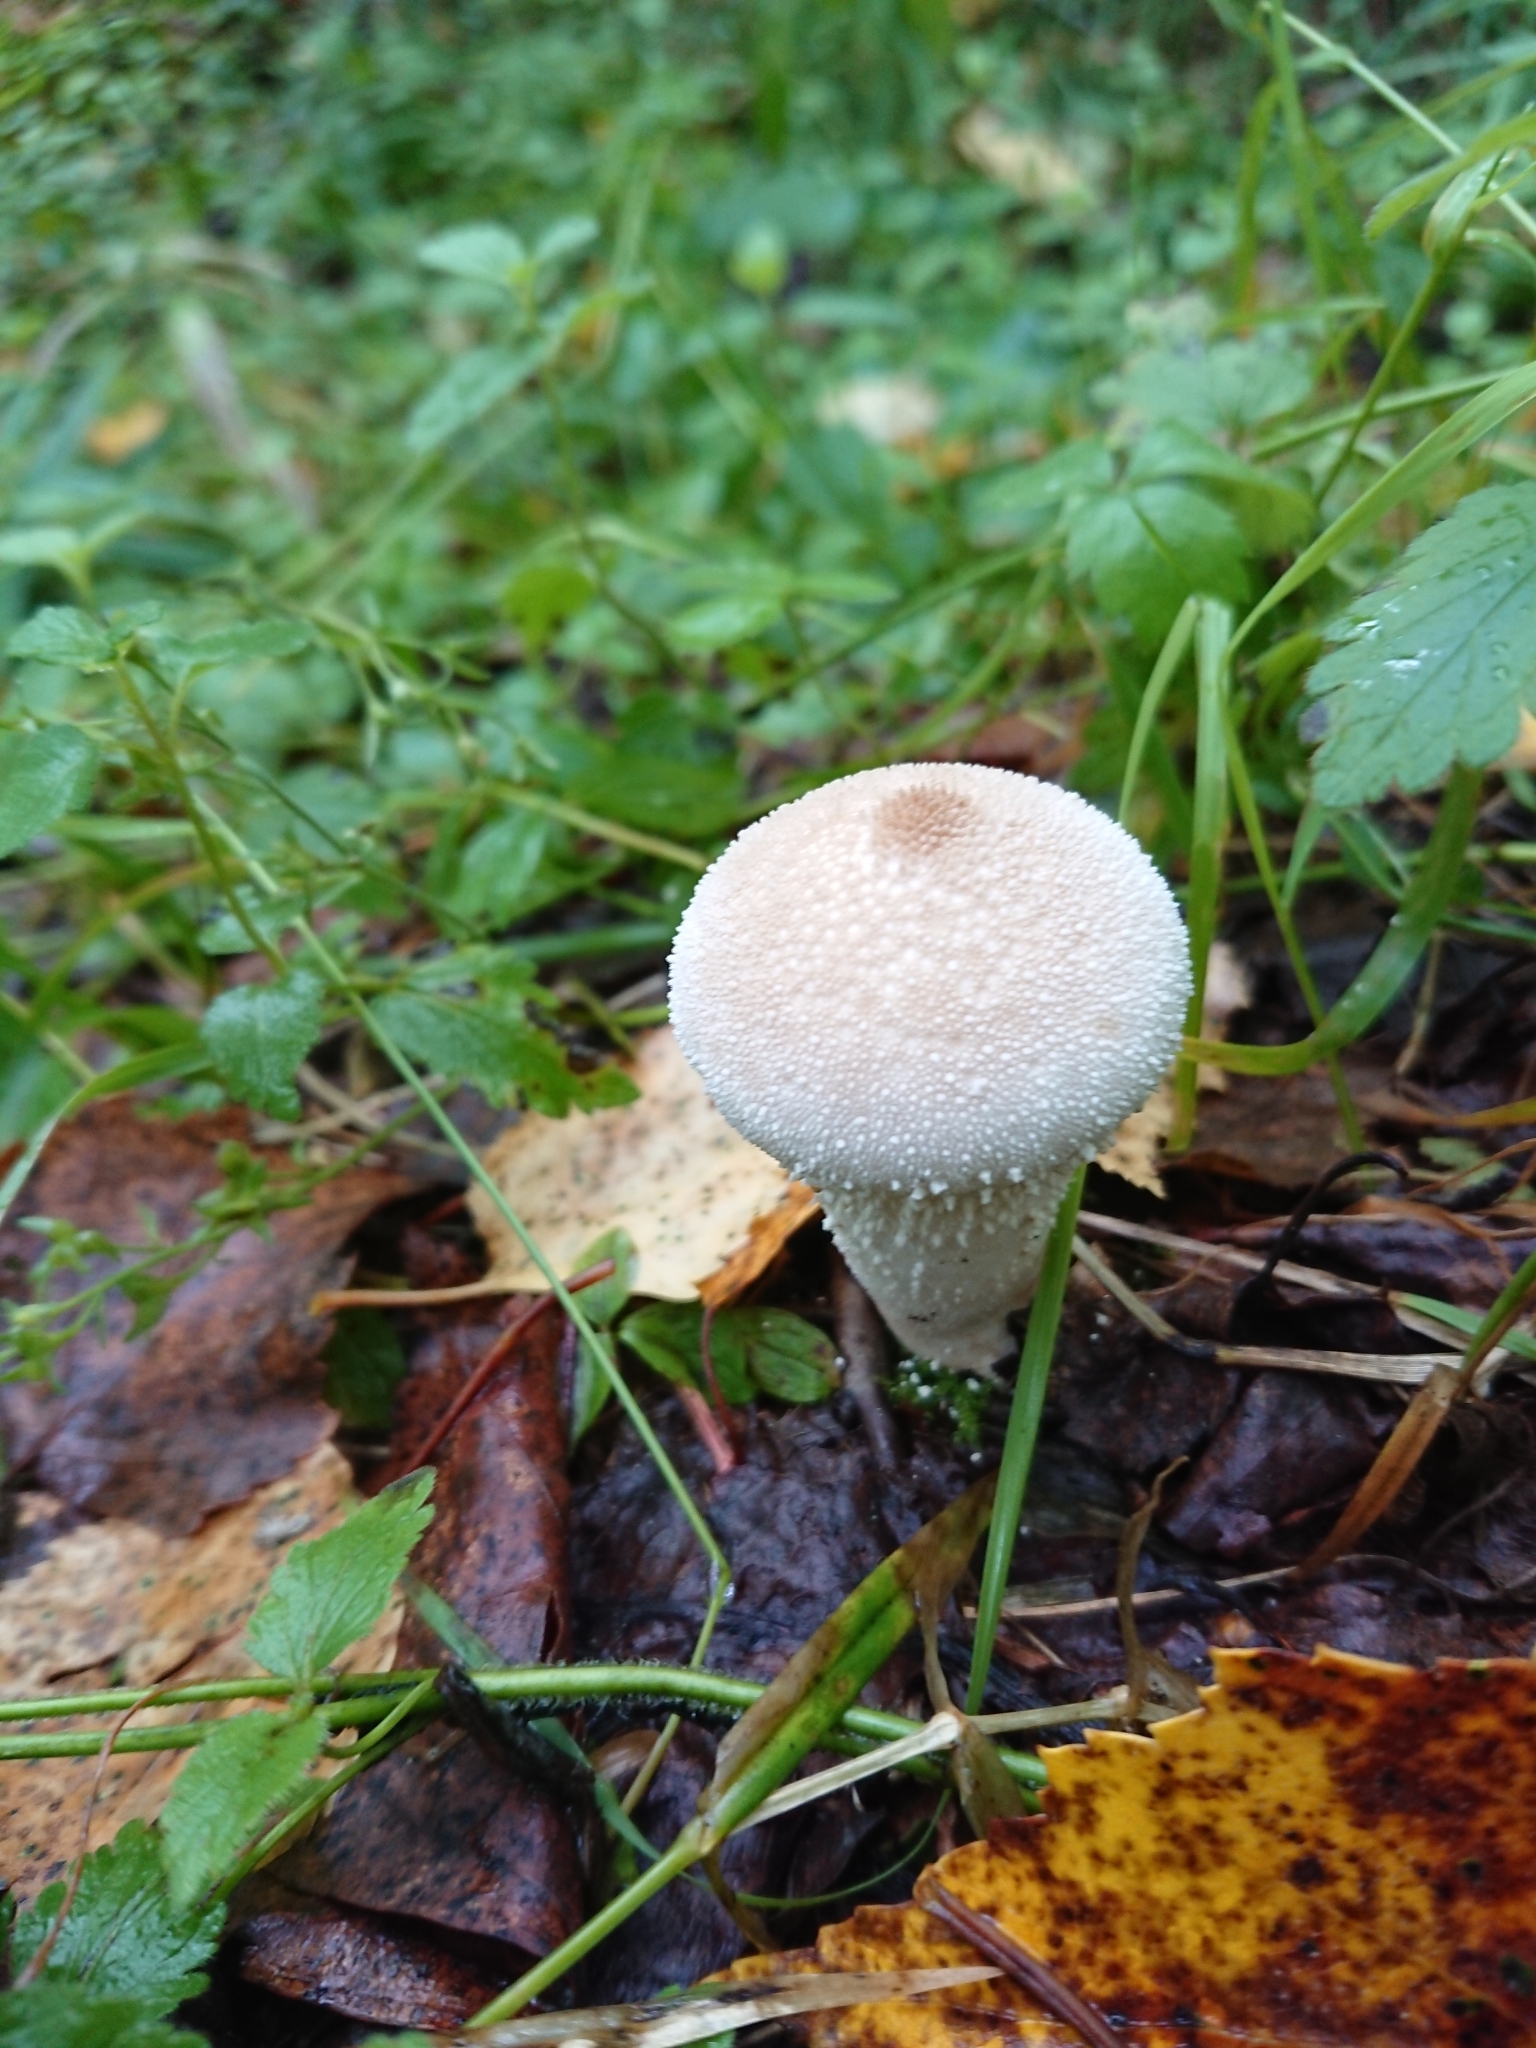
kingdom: Fungi
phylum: Basidiomycota
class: Agaricomycetes
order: Agaricales
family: Lycoperdaceae
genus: Lycoperdon
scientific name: Lycoperdon perlatum
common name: Common puffball
